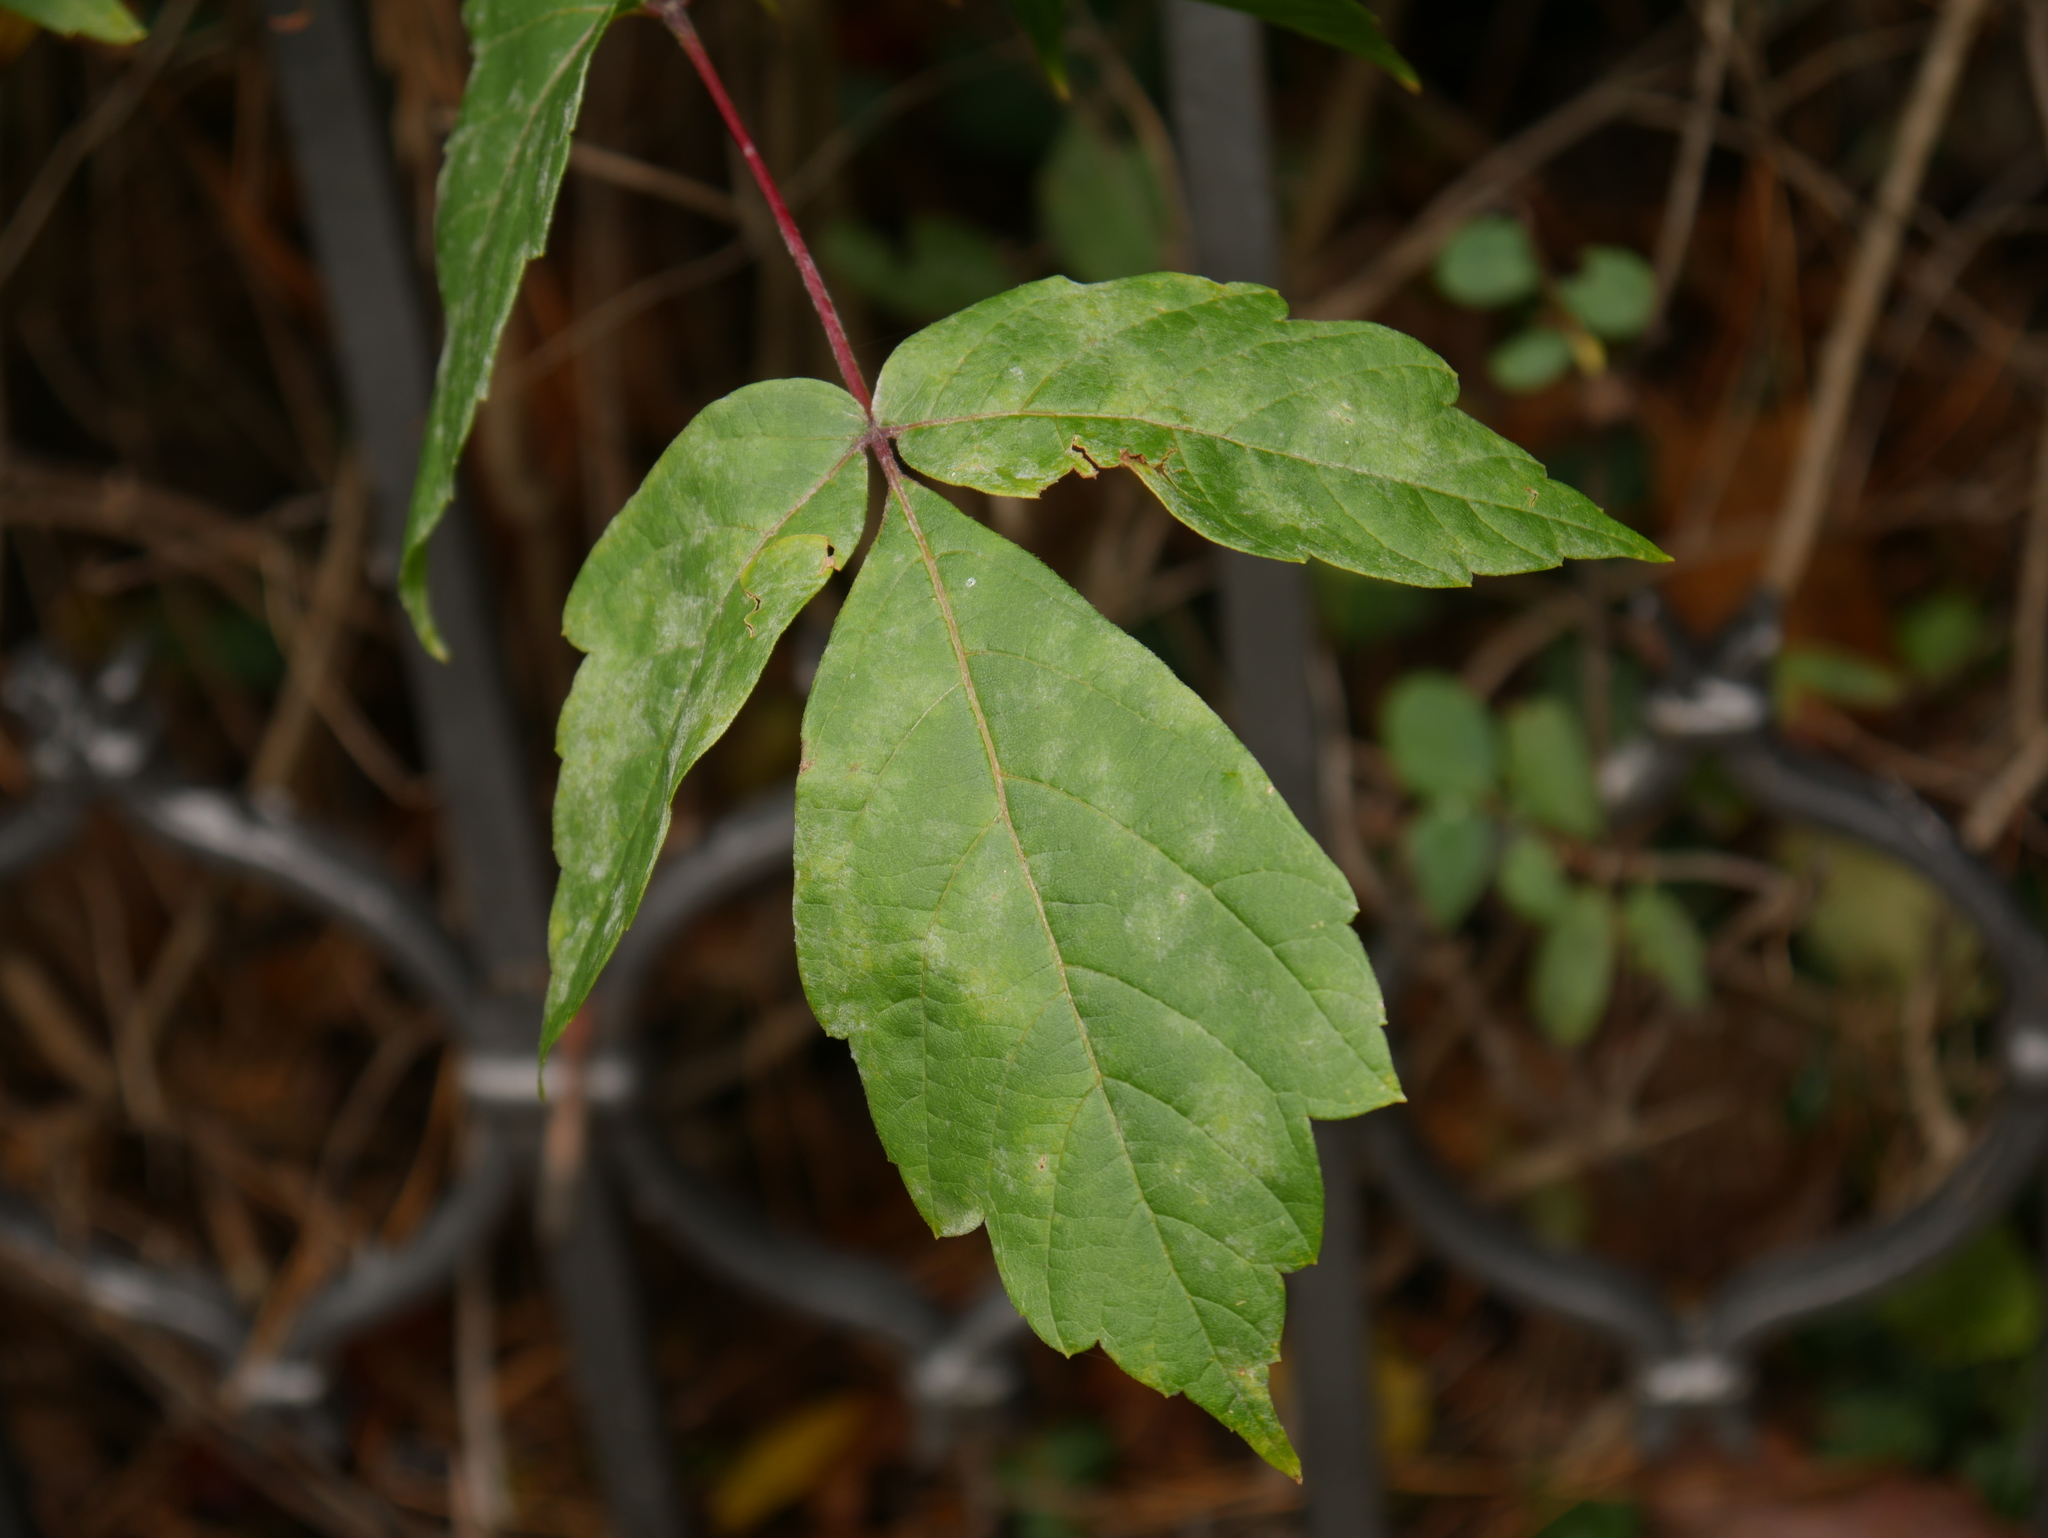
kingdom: Plantae
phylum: Tracheophyta
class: Magnoliopsida
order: Sapindales
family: Sapindaceae
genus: Acer
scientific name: Acer negundo
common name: Ashleaf maple
